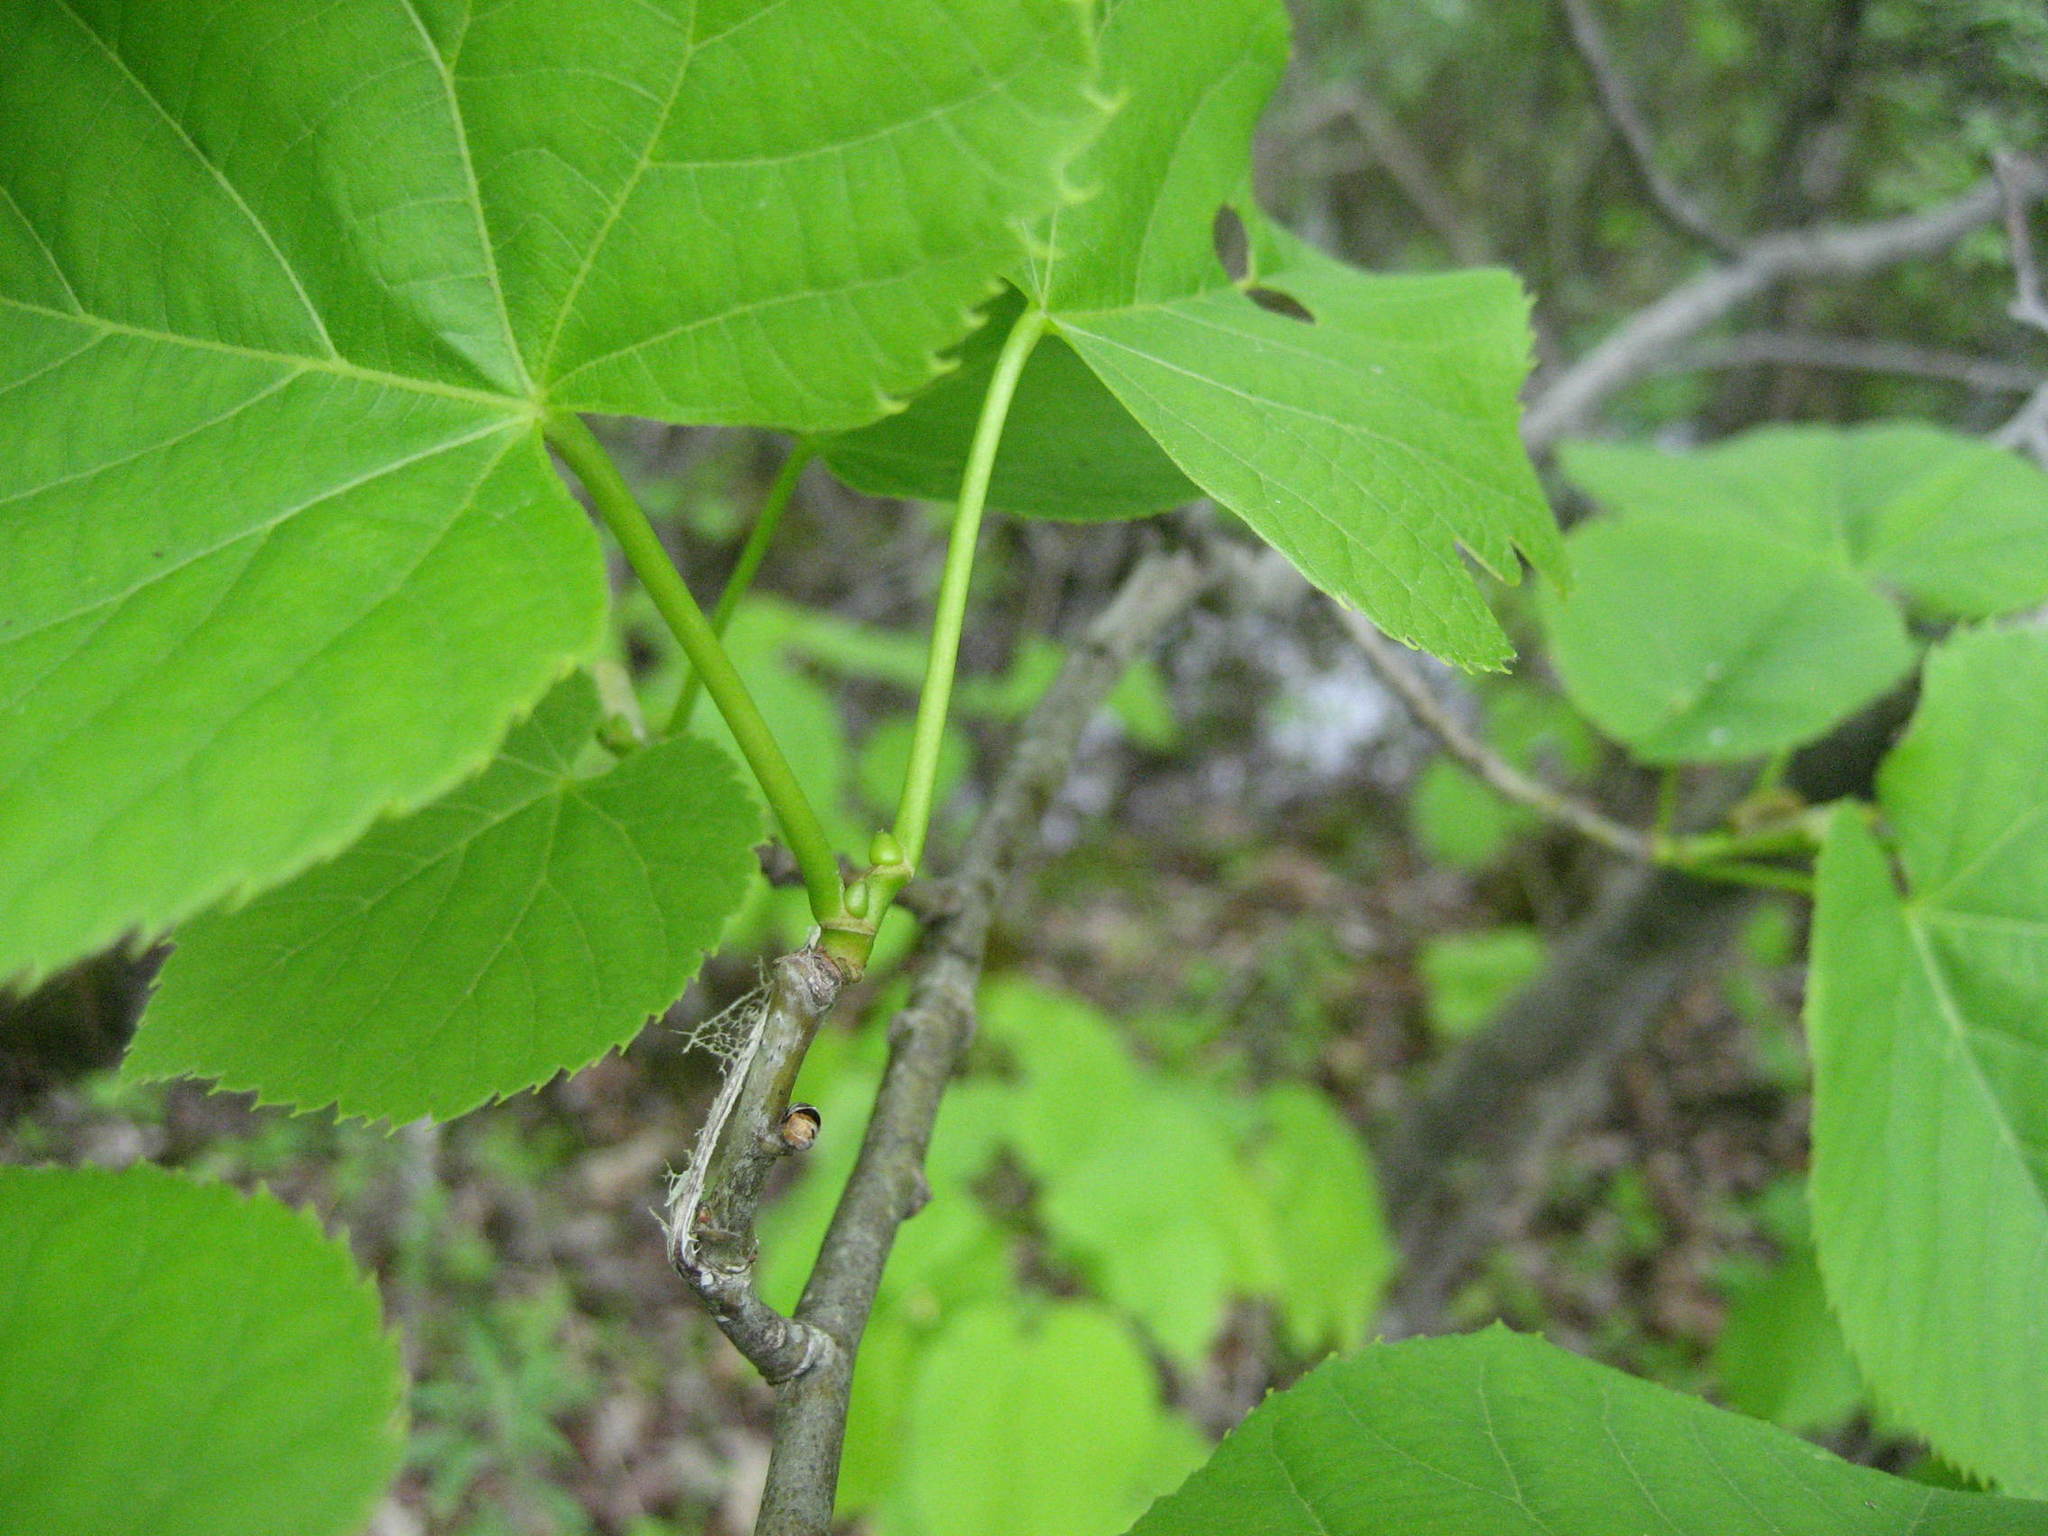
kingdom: Plantae
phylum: Tracheophyta
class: Magnoliopsida
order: Malvales
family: Malvaceae
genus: Tilia
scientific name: Tilia americana
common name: Basswood
